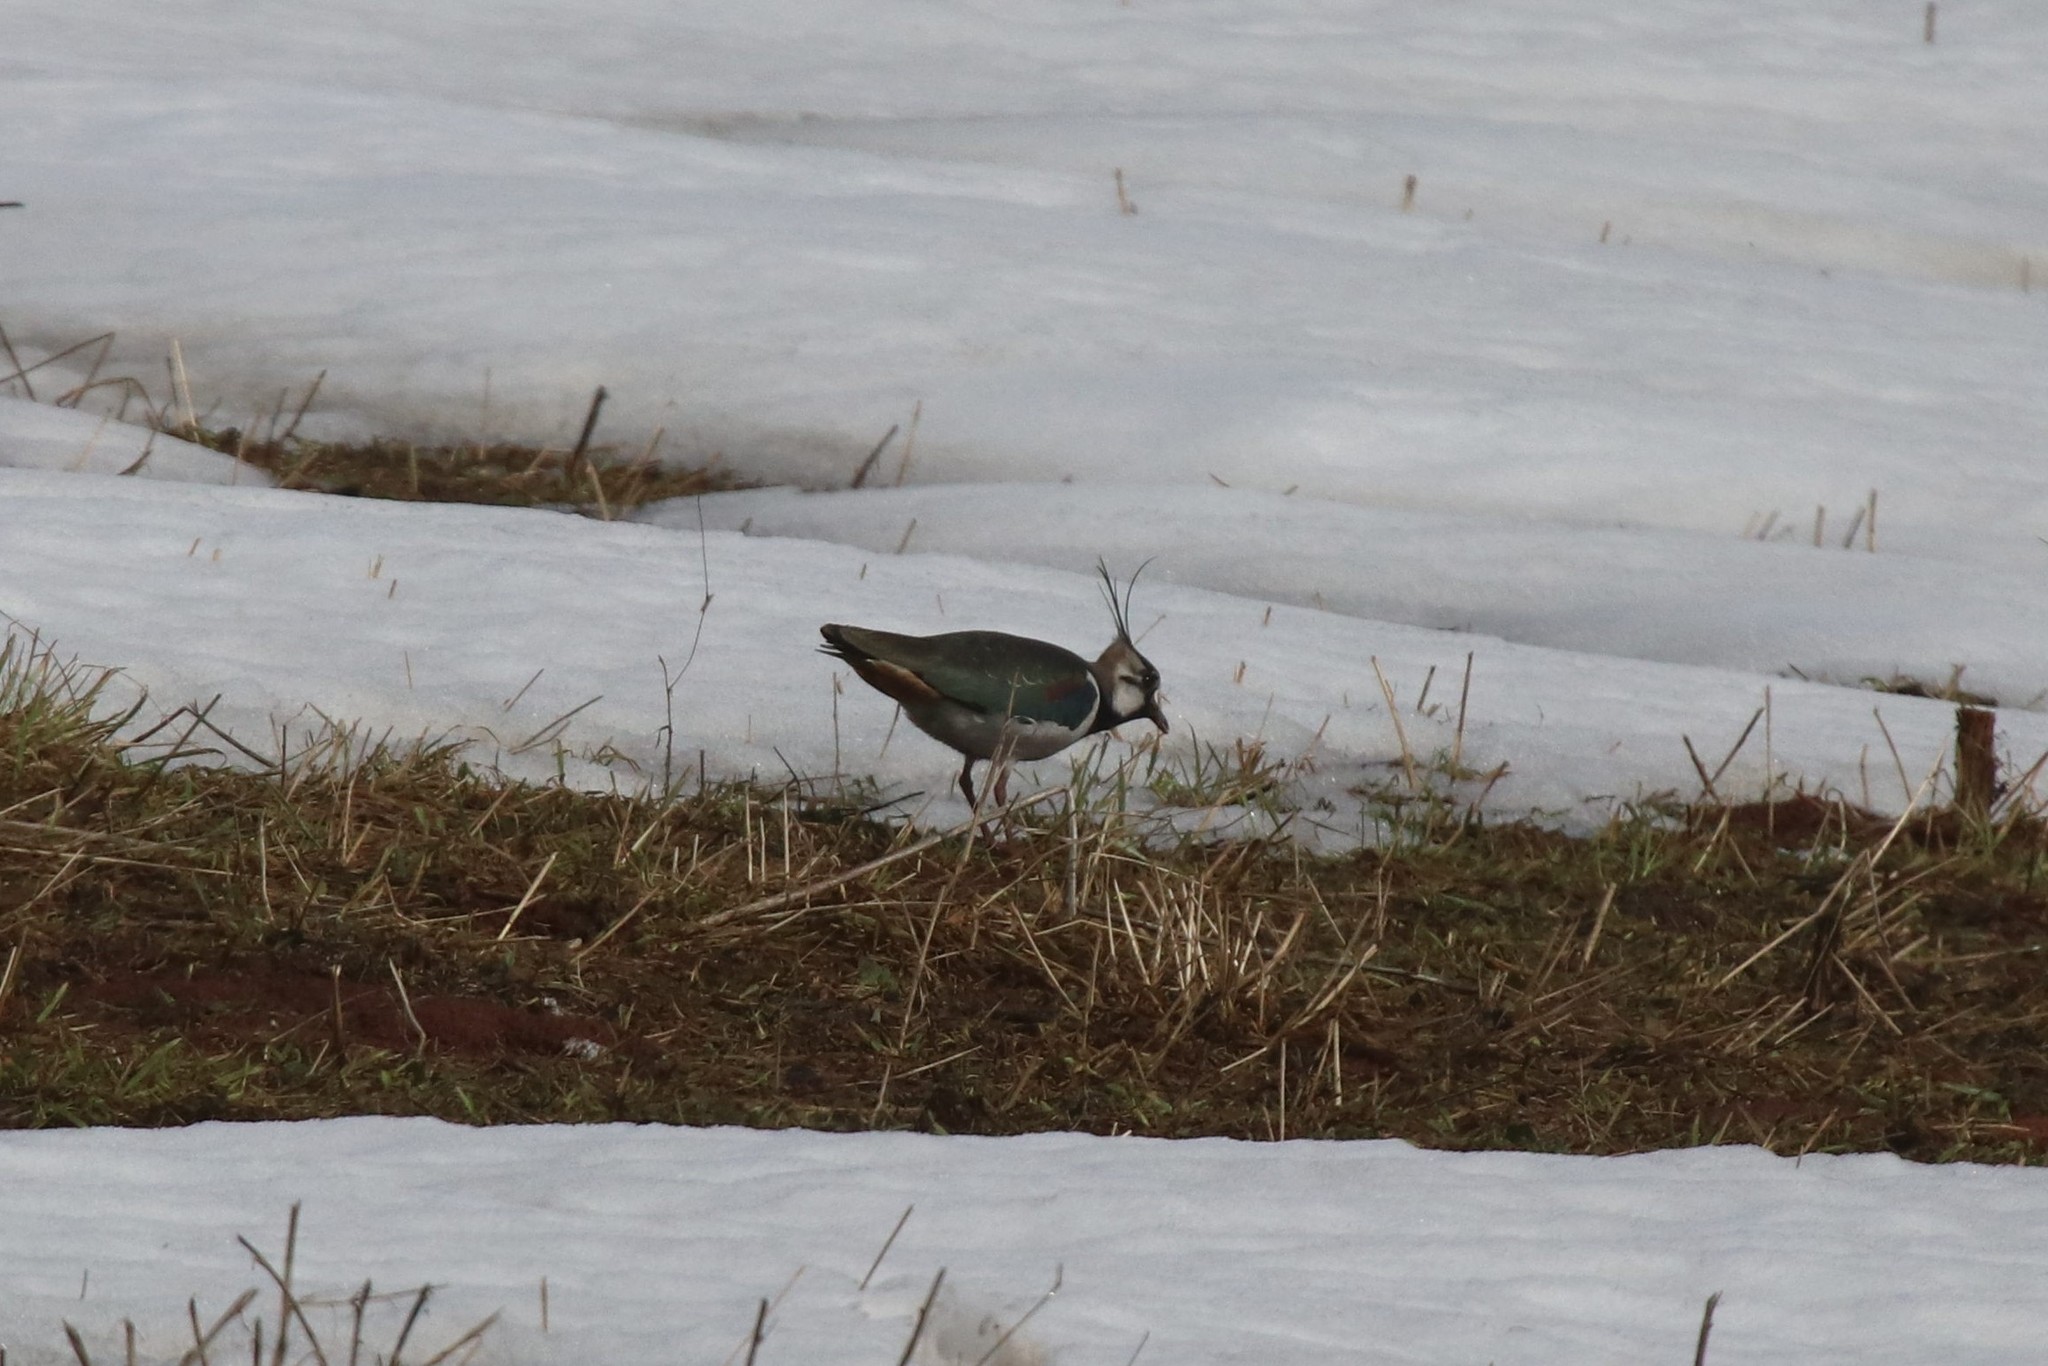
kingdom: Animalia
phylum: Chordata
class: Aves
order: Charadriiformes
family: Charadriidae
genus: Vanellus
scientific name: Vanellus vanellus
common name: Northern lapwing
